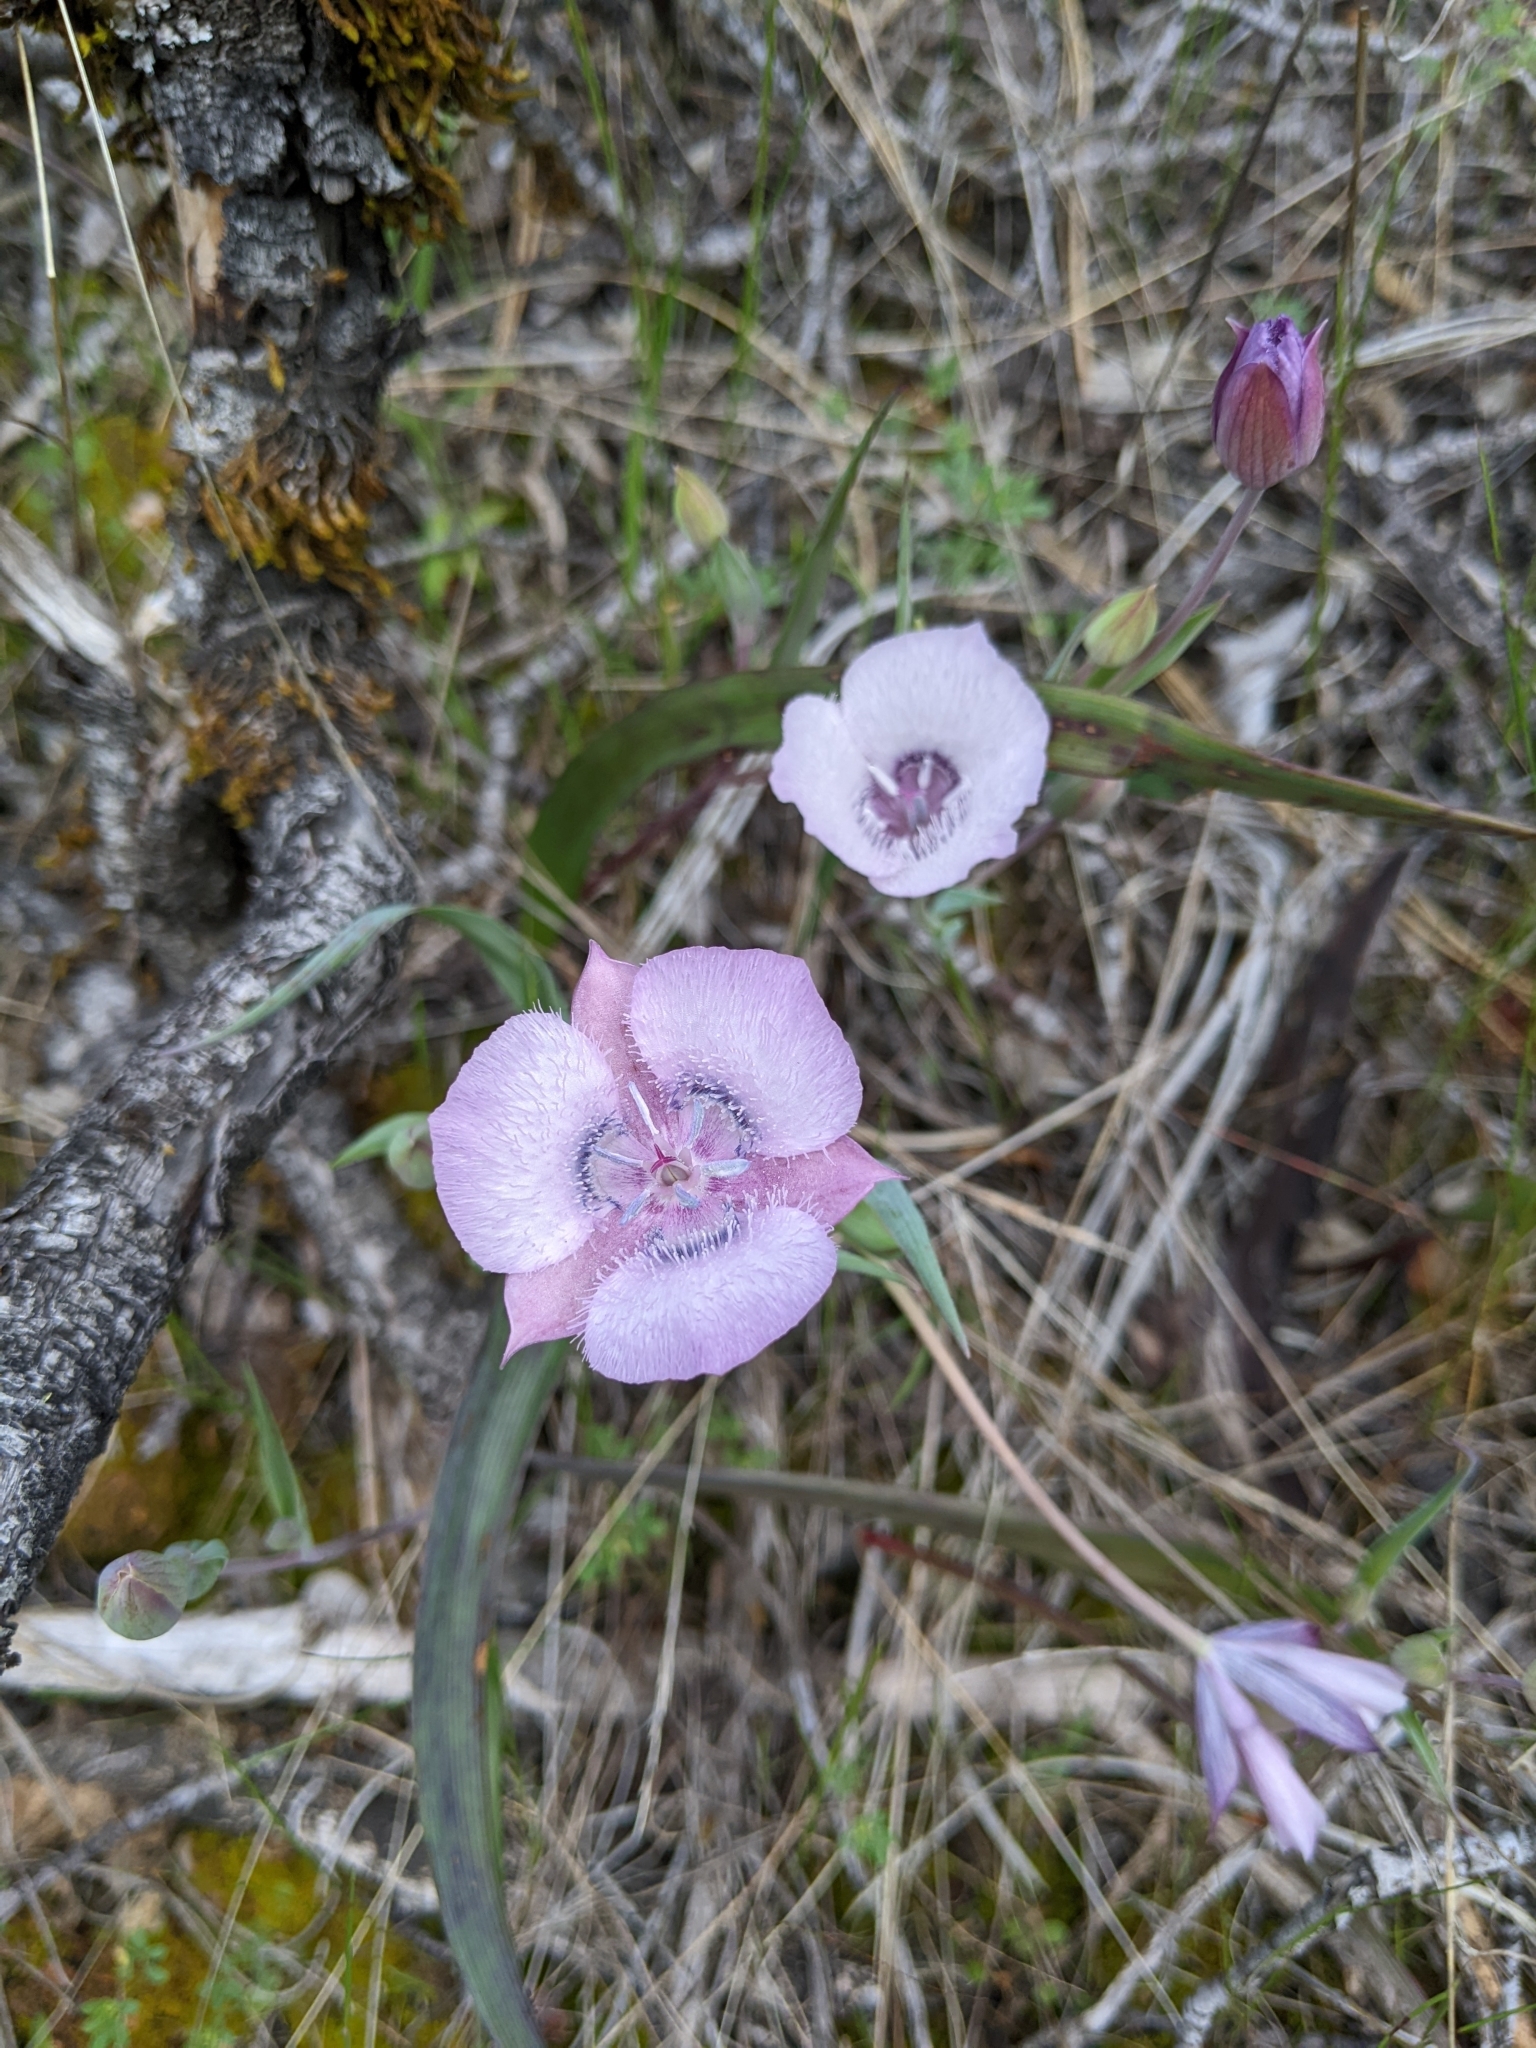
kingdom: Plantae
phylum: Tracheophyta
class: Liliopsida
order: Liliales
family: Liliaceae
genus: Calochortus
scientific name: Calochortus tolmiei
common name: Pussy-ears
